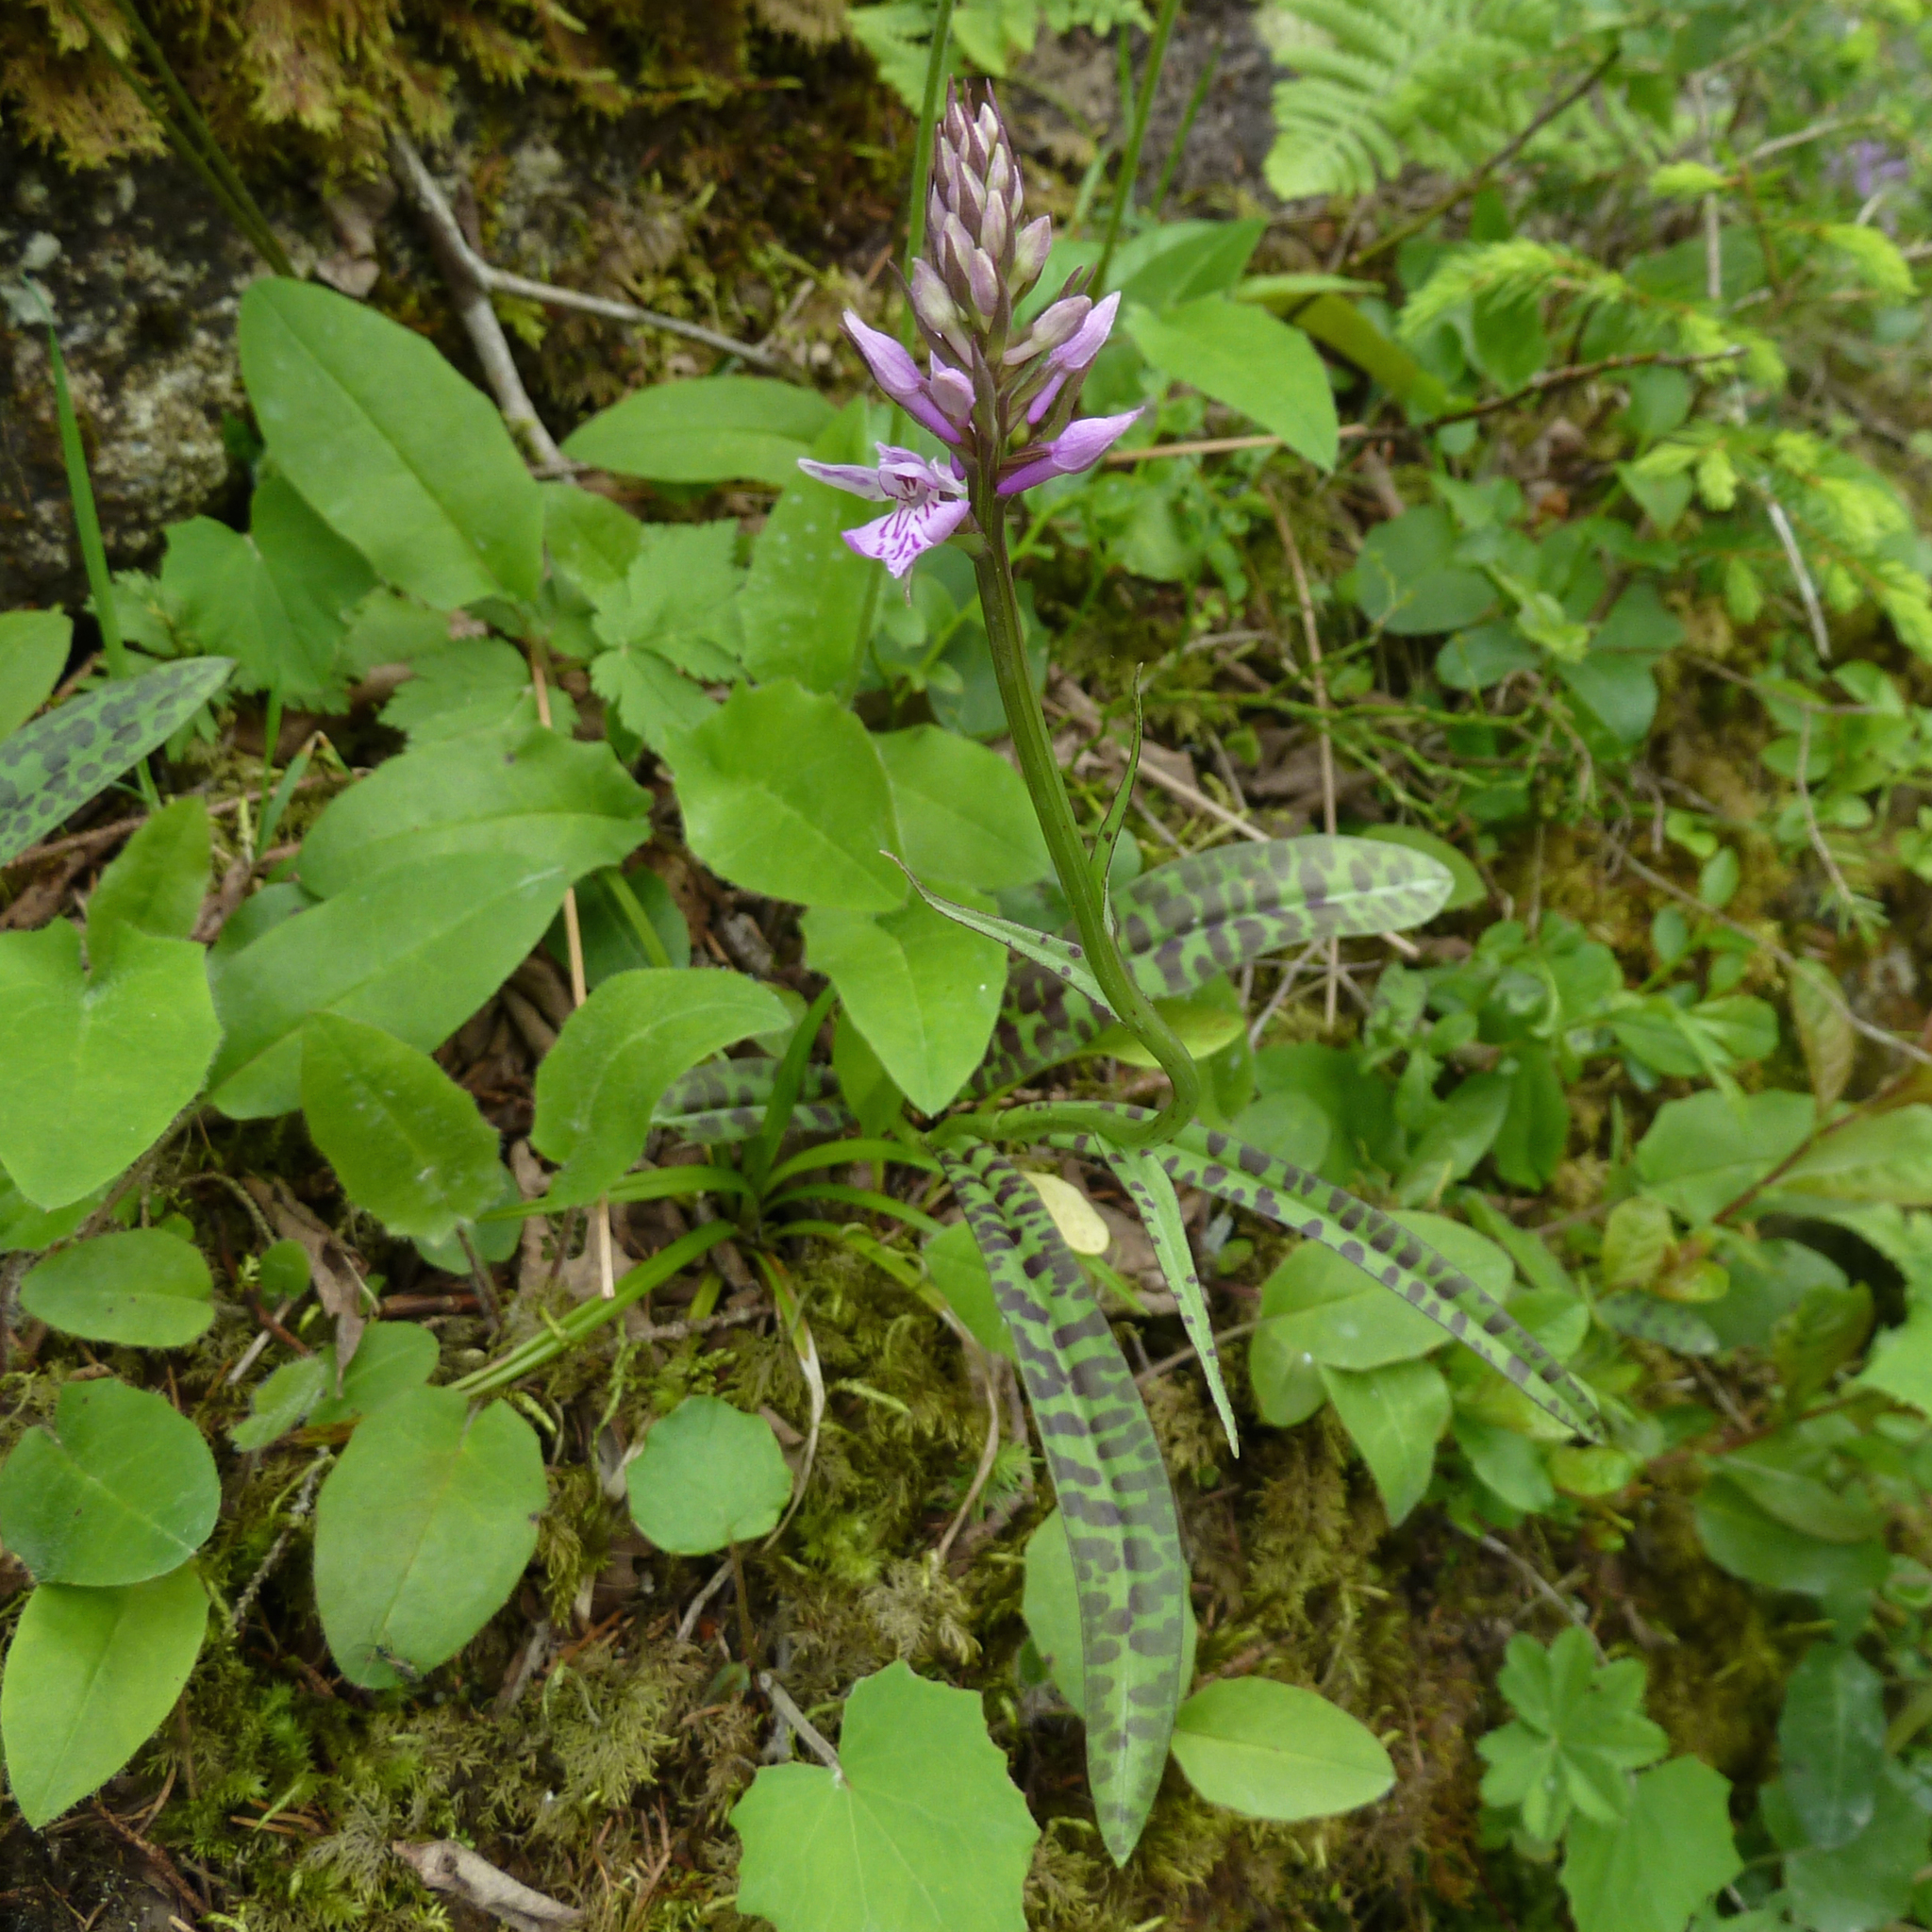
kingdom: Plantae
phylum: Tracheophyta
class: Liliopsida
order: Asparagales
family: Orchidaceae
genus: Dactylorhiza
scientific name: Dactylorhiza maculata
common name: Heath spotted-orchid
